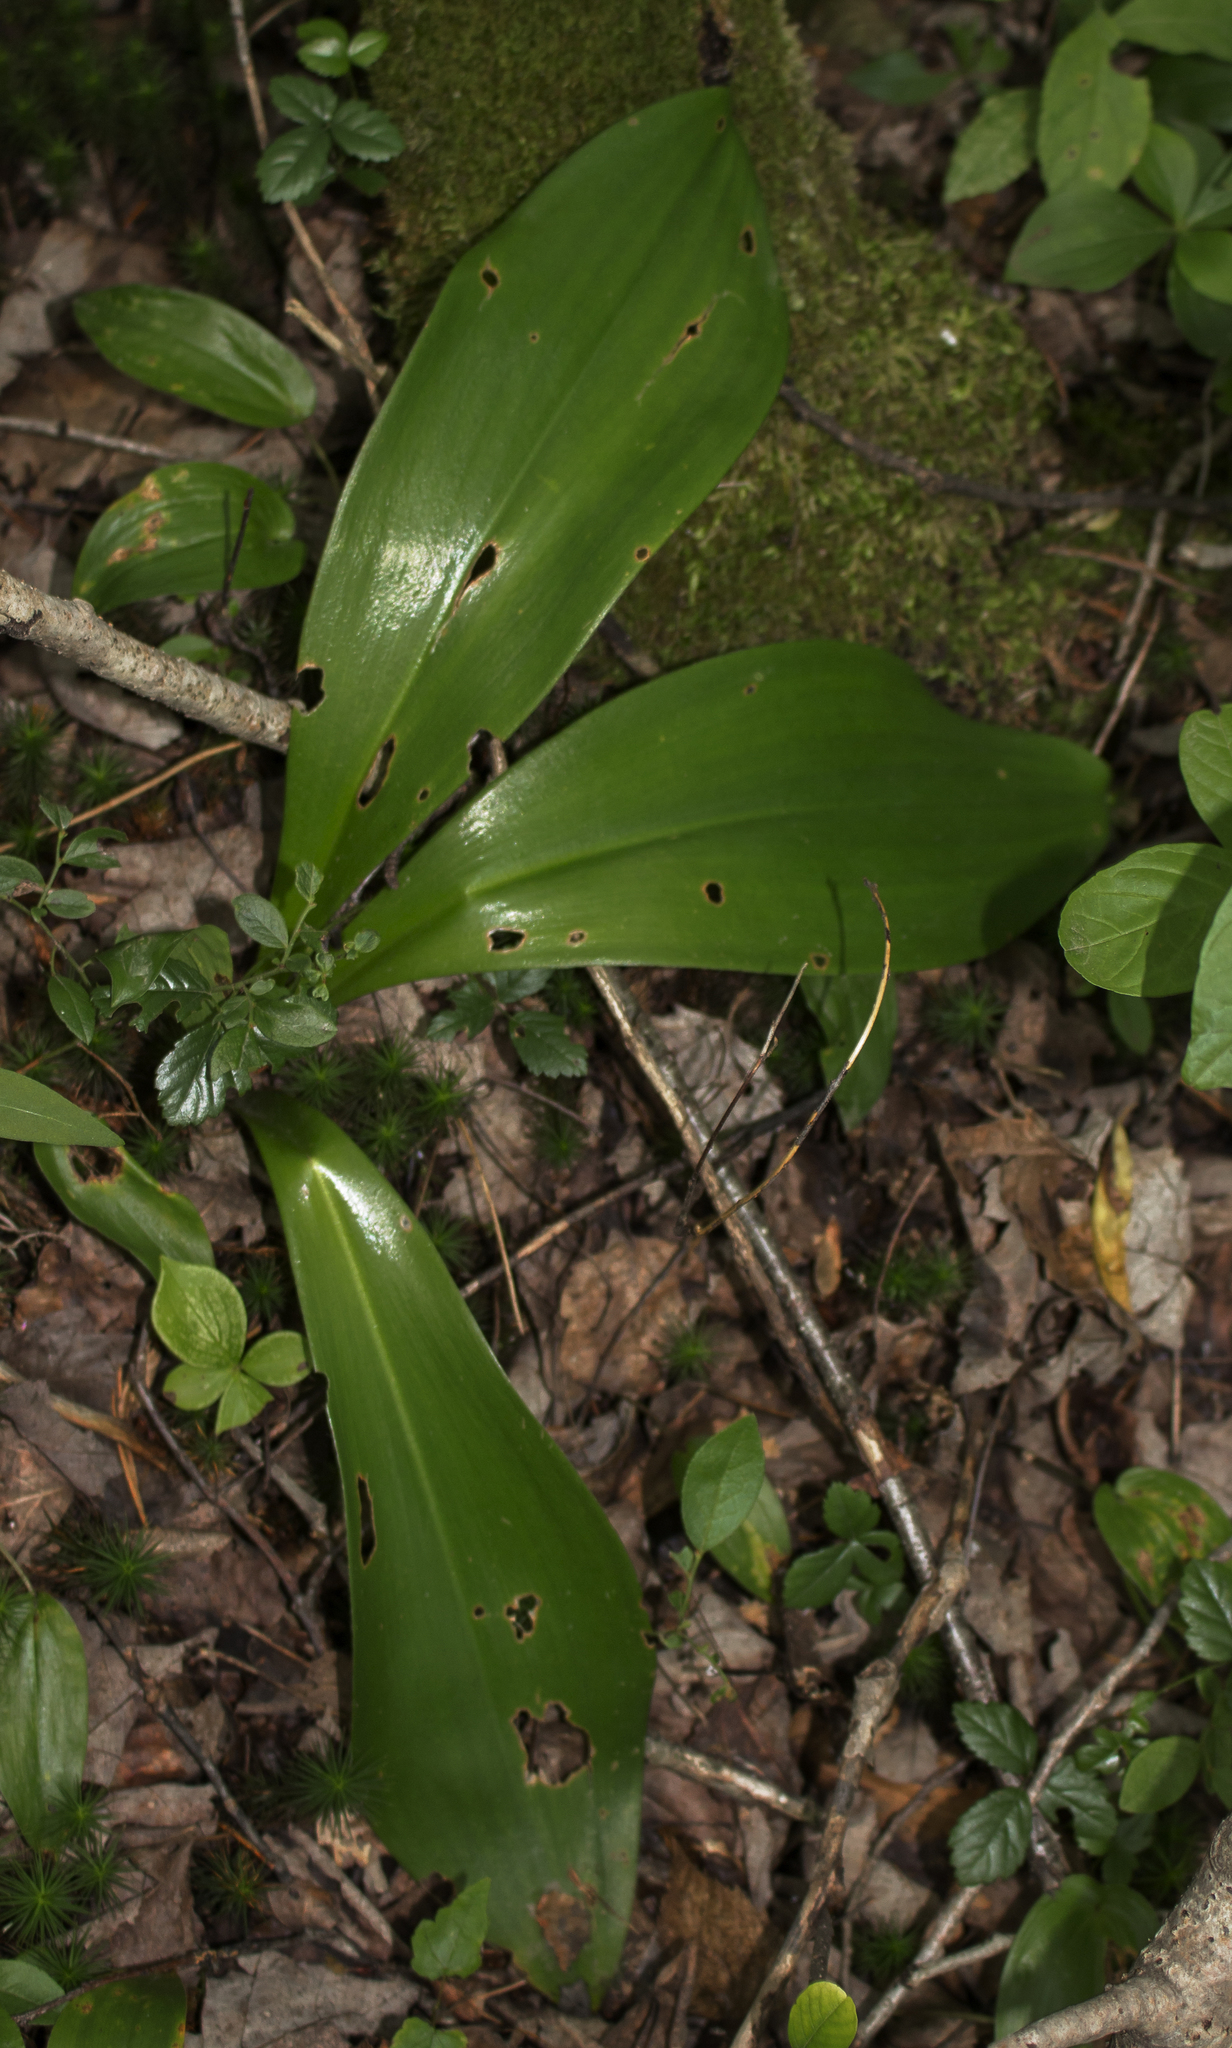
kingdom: Plantae
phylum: Tracheophyta
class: Liliopsida
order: Liliales
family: Liliaceae
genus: Clintonia
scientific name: Clintonia borealis
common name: Yellow clintonia
